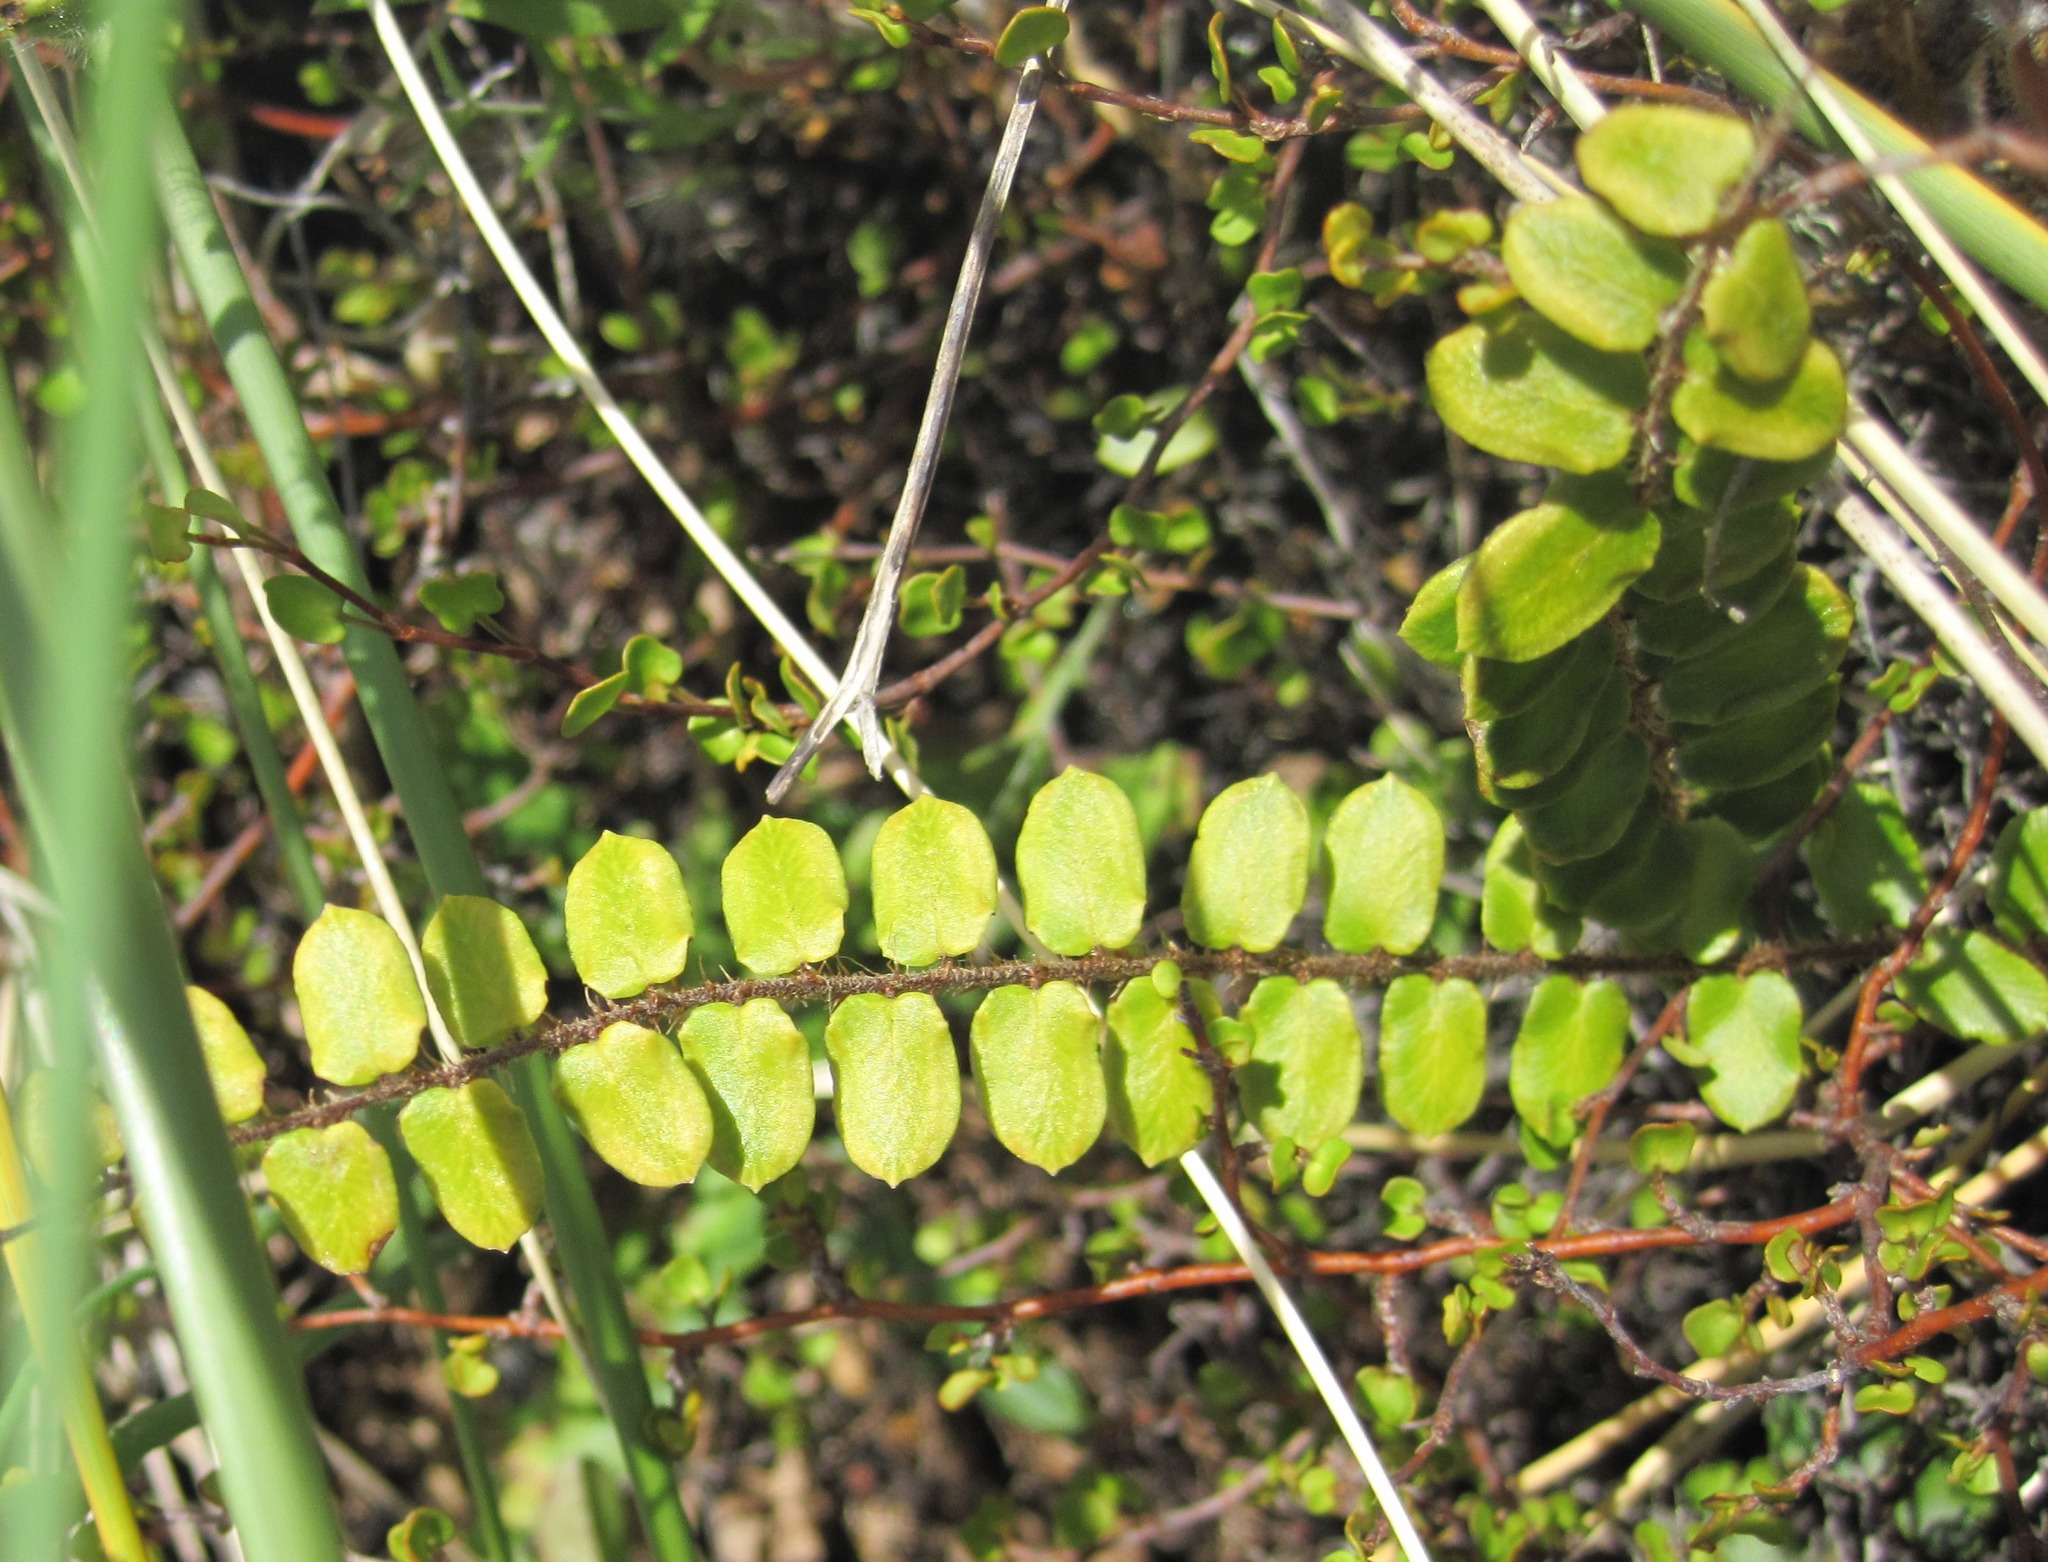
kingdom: Plantae
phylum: Tracheophyta
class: Polypodiopsida
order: Polypodiales
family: Pteridaceae
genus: Pellaea
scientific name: Pellaea rotundifolia
